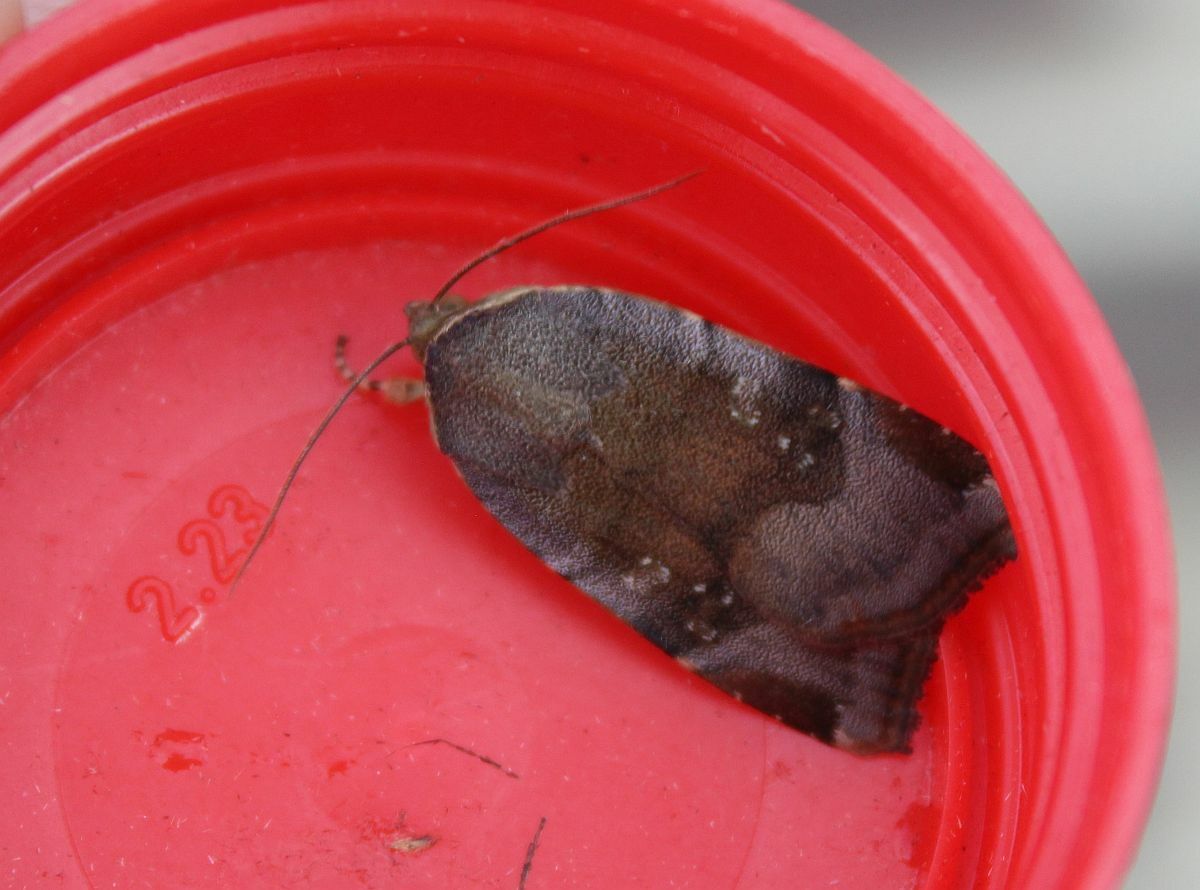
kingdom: Animalia
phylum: Arthropoda
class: Insecta
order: Lepidoptera
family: Noctuidae
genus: Noctua
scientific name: Noctua janthe
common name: Lesser broad-bordered yellow underwing
